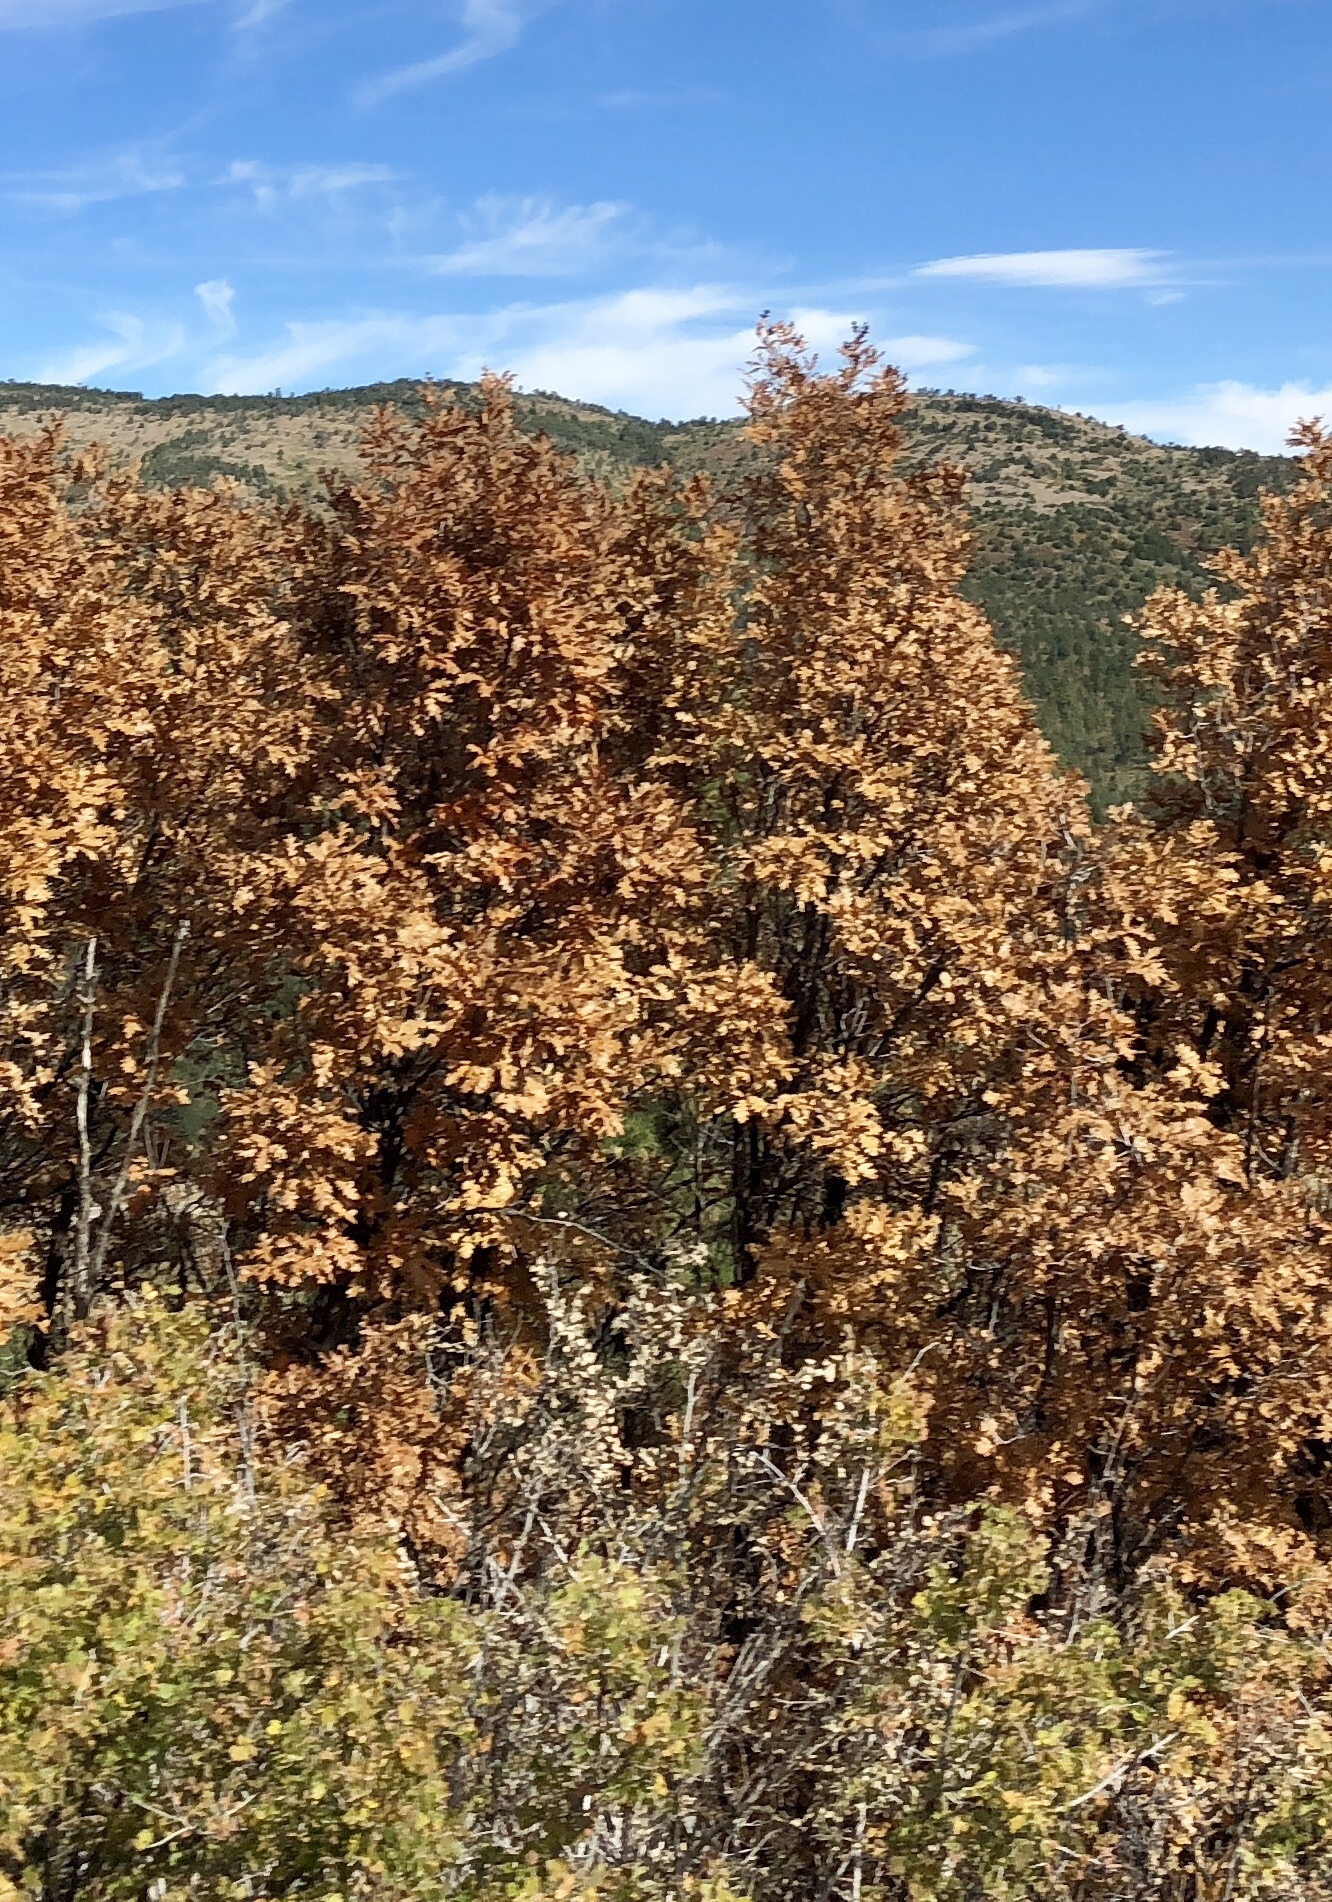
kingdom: Plantae
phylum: Tracheophyta
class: Magnoliopsida
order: Fagales
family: Fagaceae
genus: Quercus
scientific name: Quercus gambelii
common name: Gambel oak
